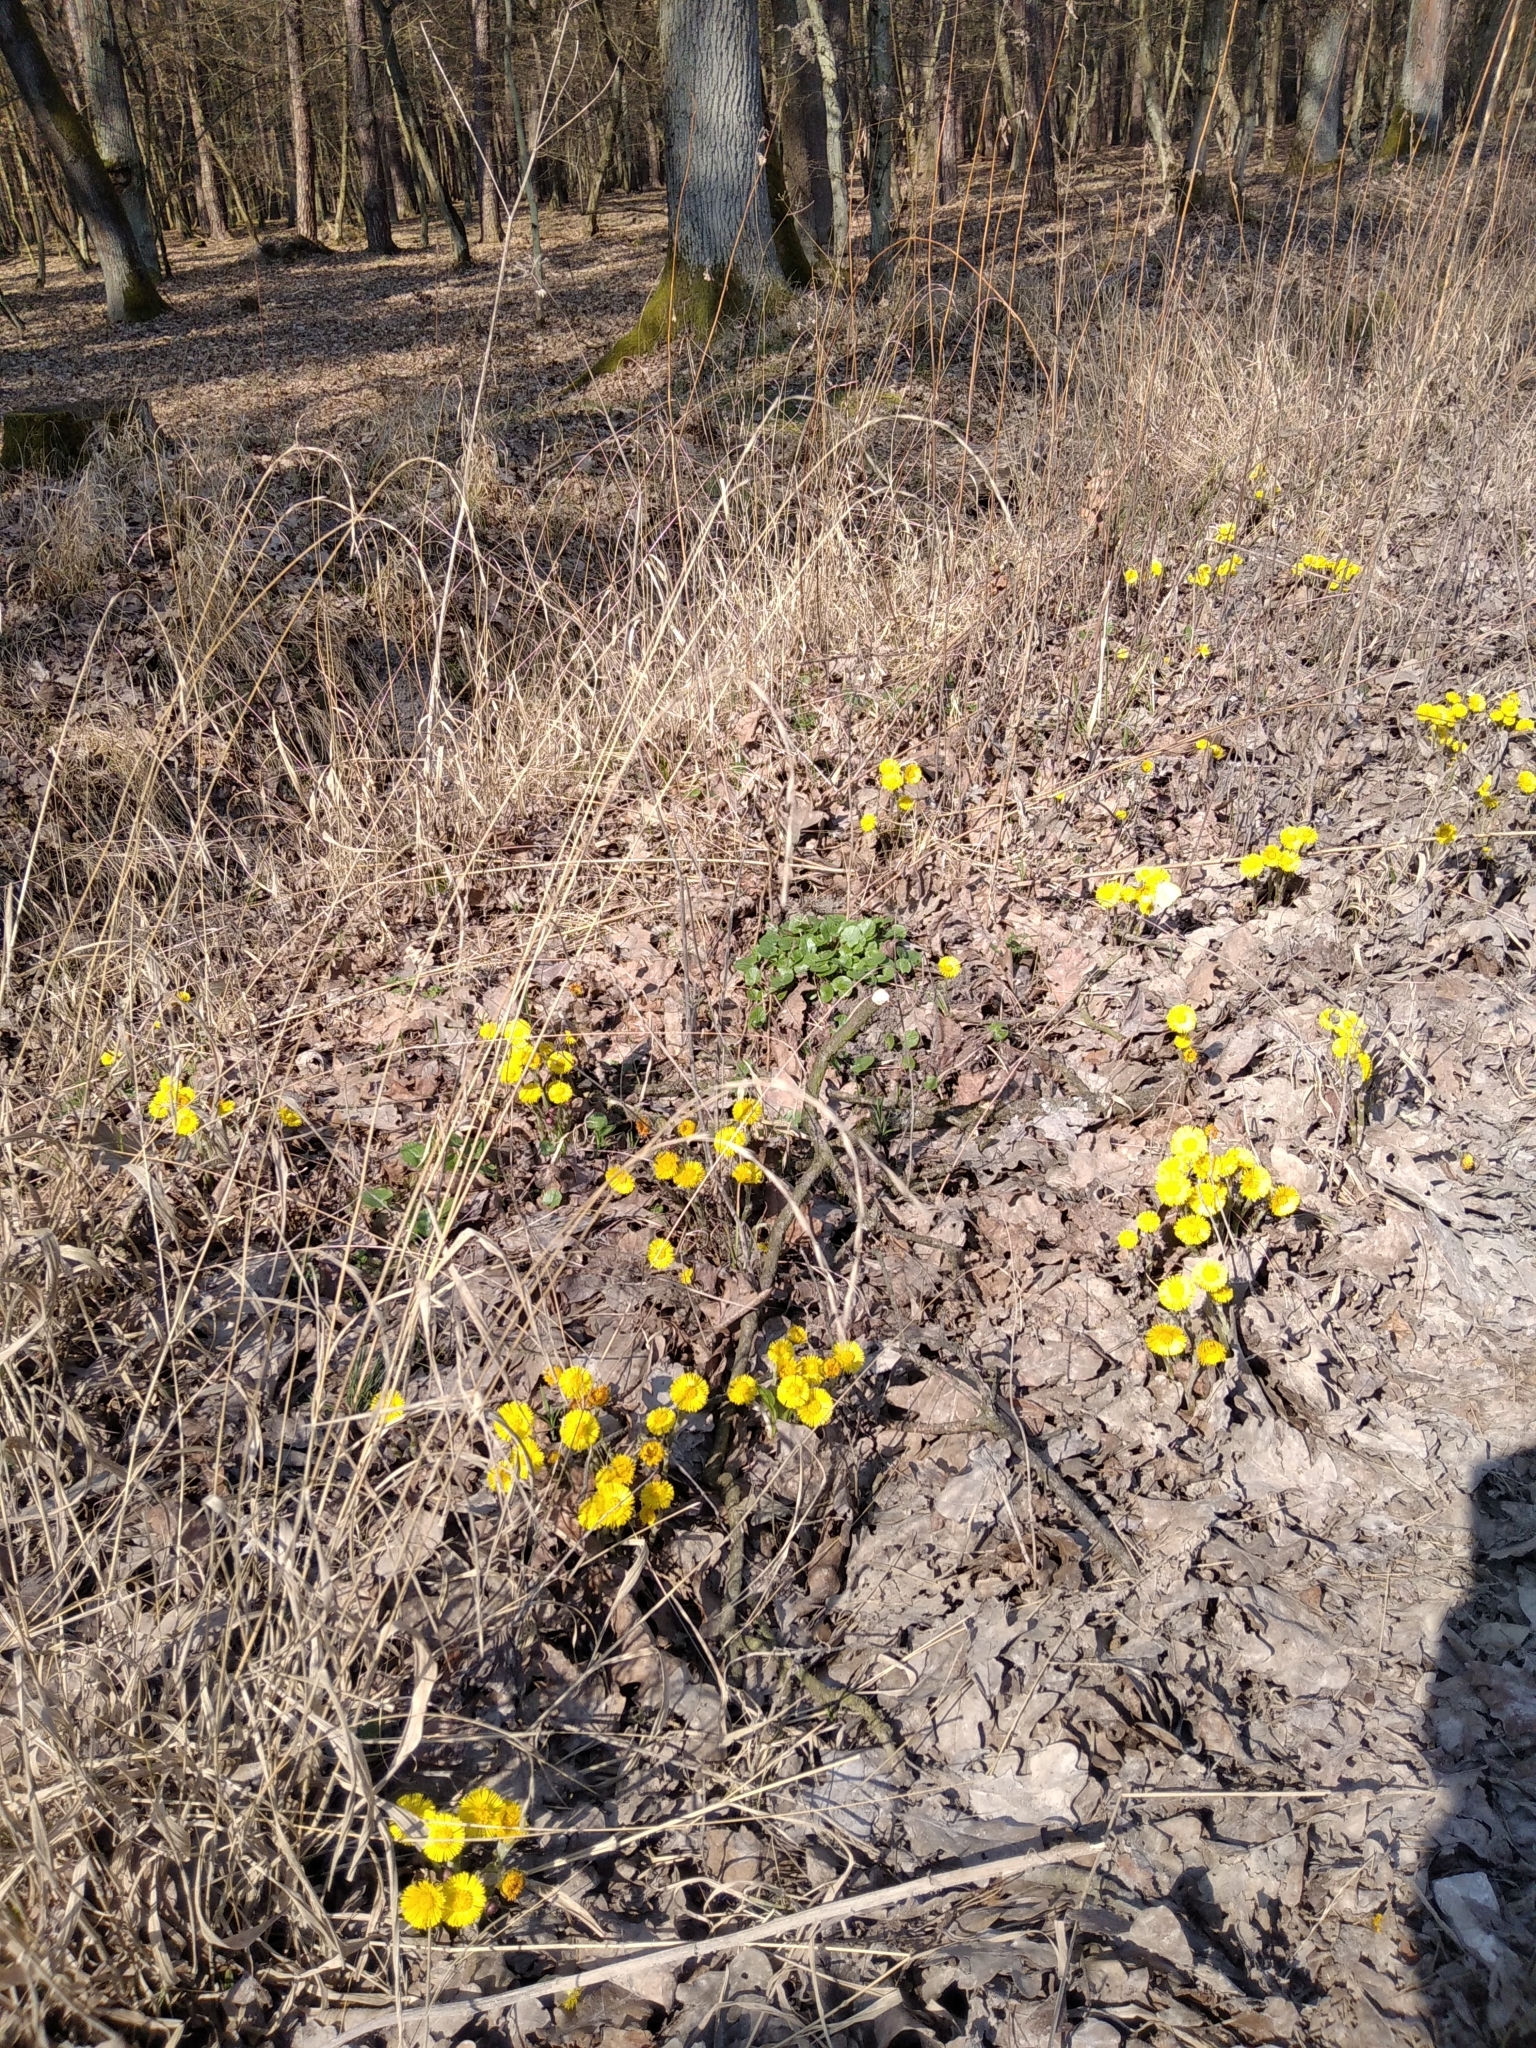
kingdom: Plantae
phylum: Tracheophyta
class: Magnoliopsida
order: Asterales
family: Asteraceae
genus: Tussilago
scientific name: Tussilago farfara
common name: Coltsfoot
